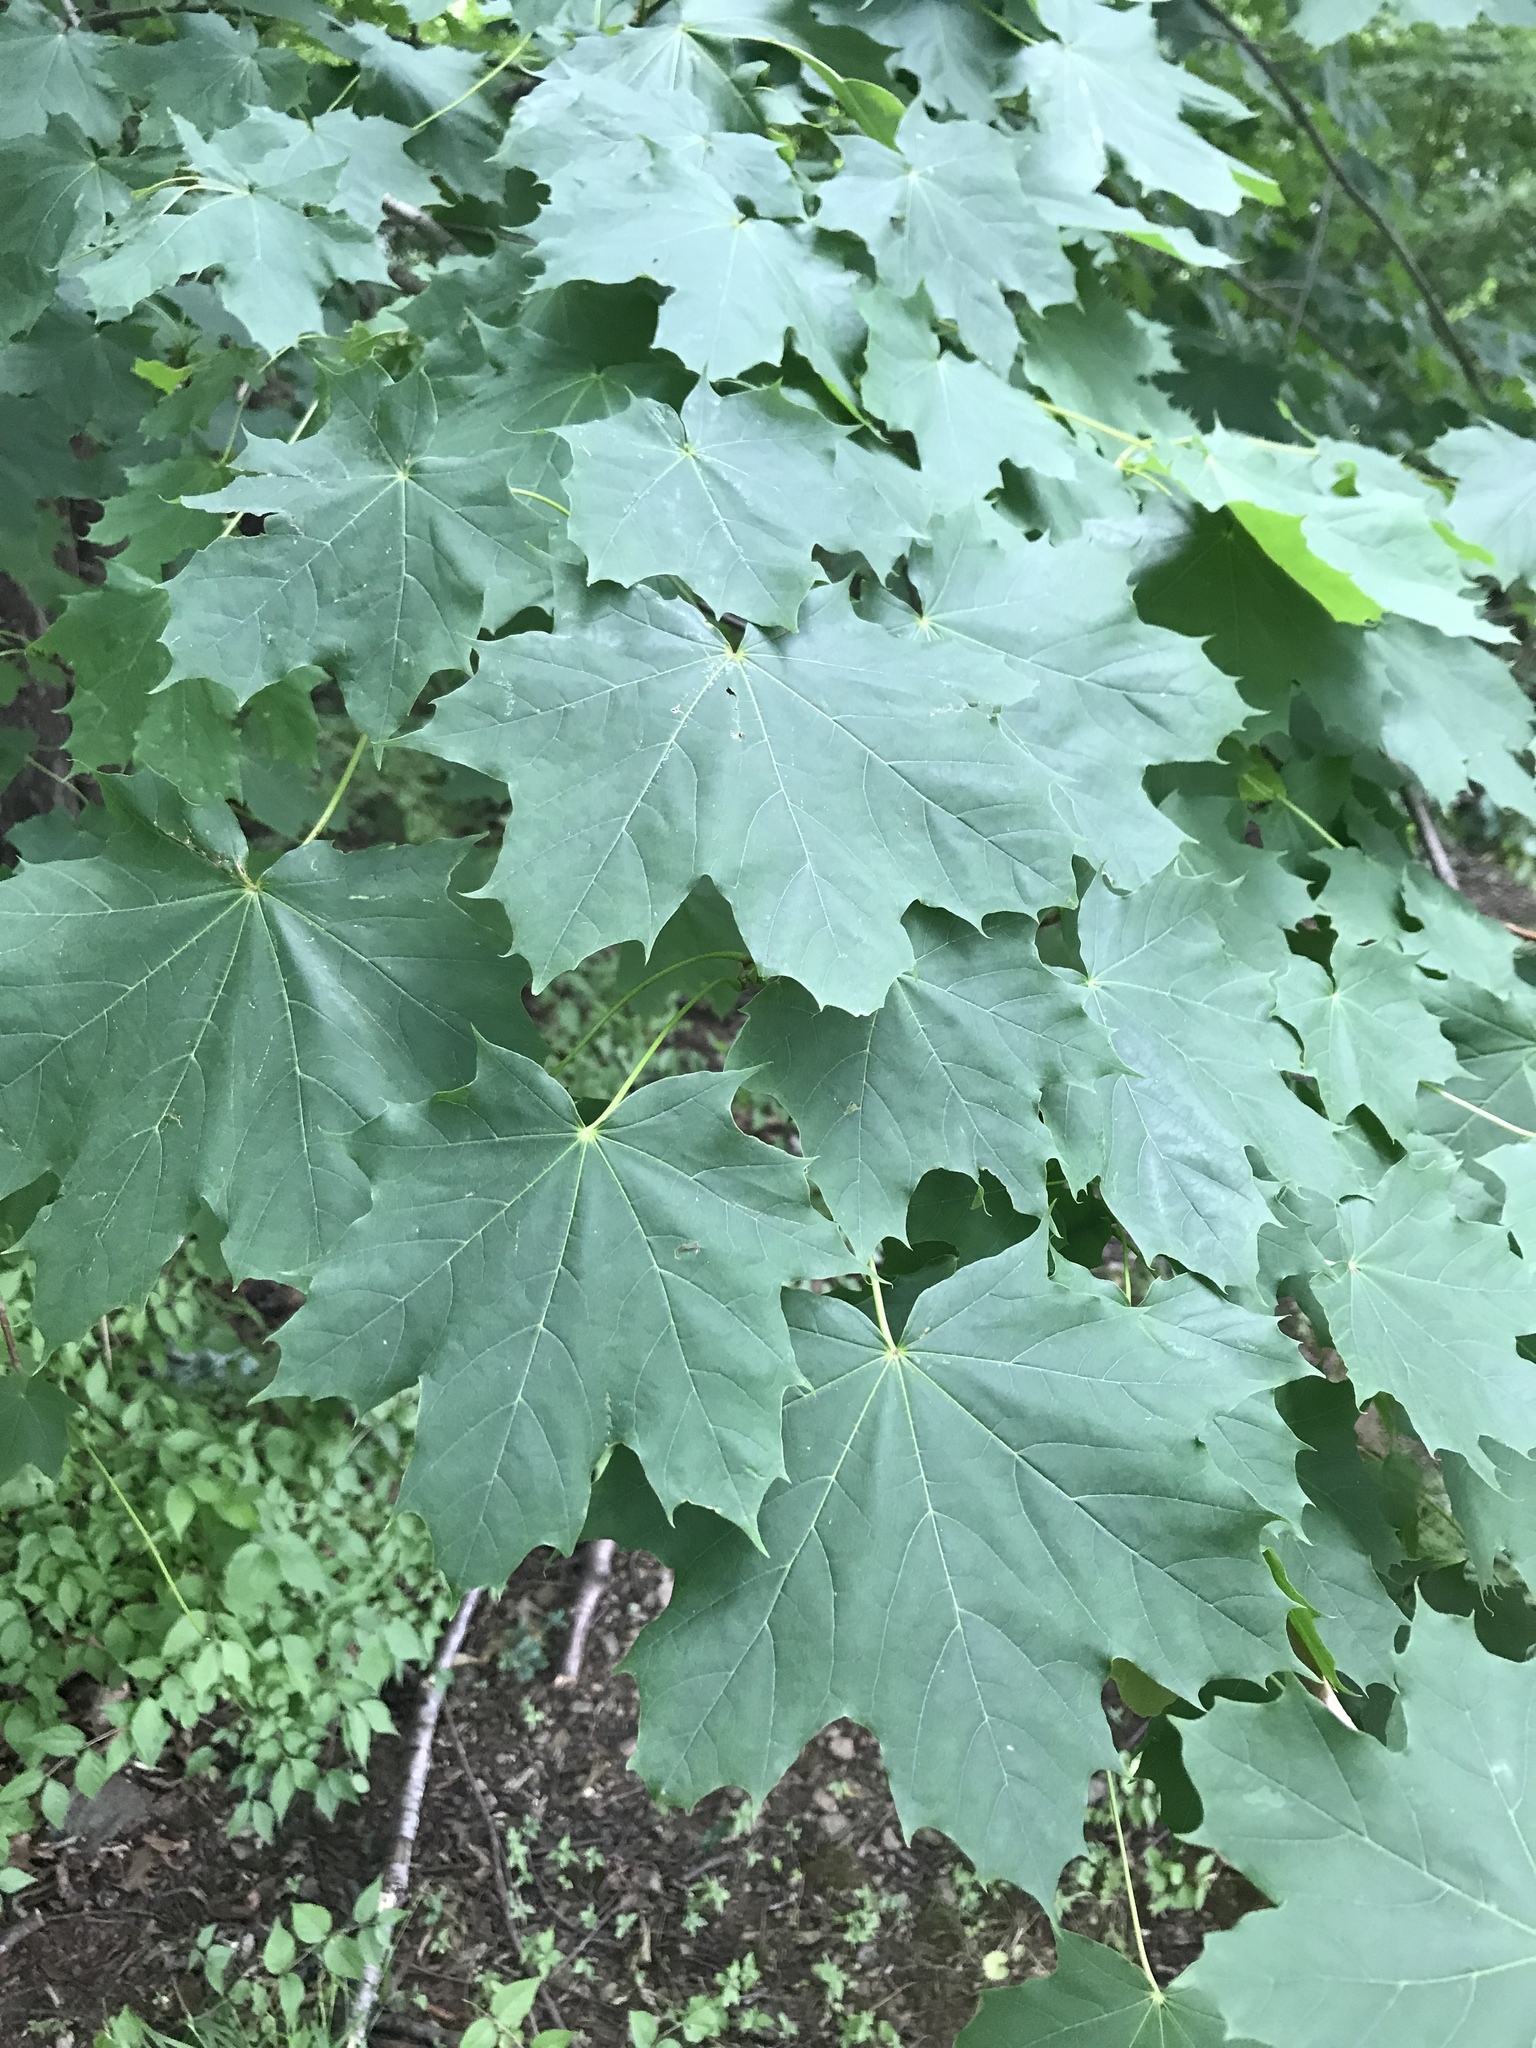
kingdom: Plantae
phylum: Tracheophyta
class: Magnoliopsida
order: Sapindales
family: Sapindaceae
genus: Acer
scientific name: Acer platanoides
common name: Norway maple
